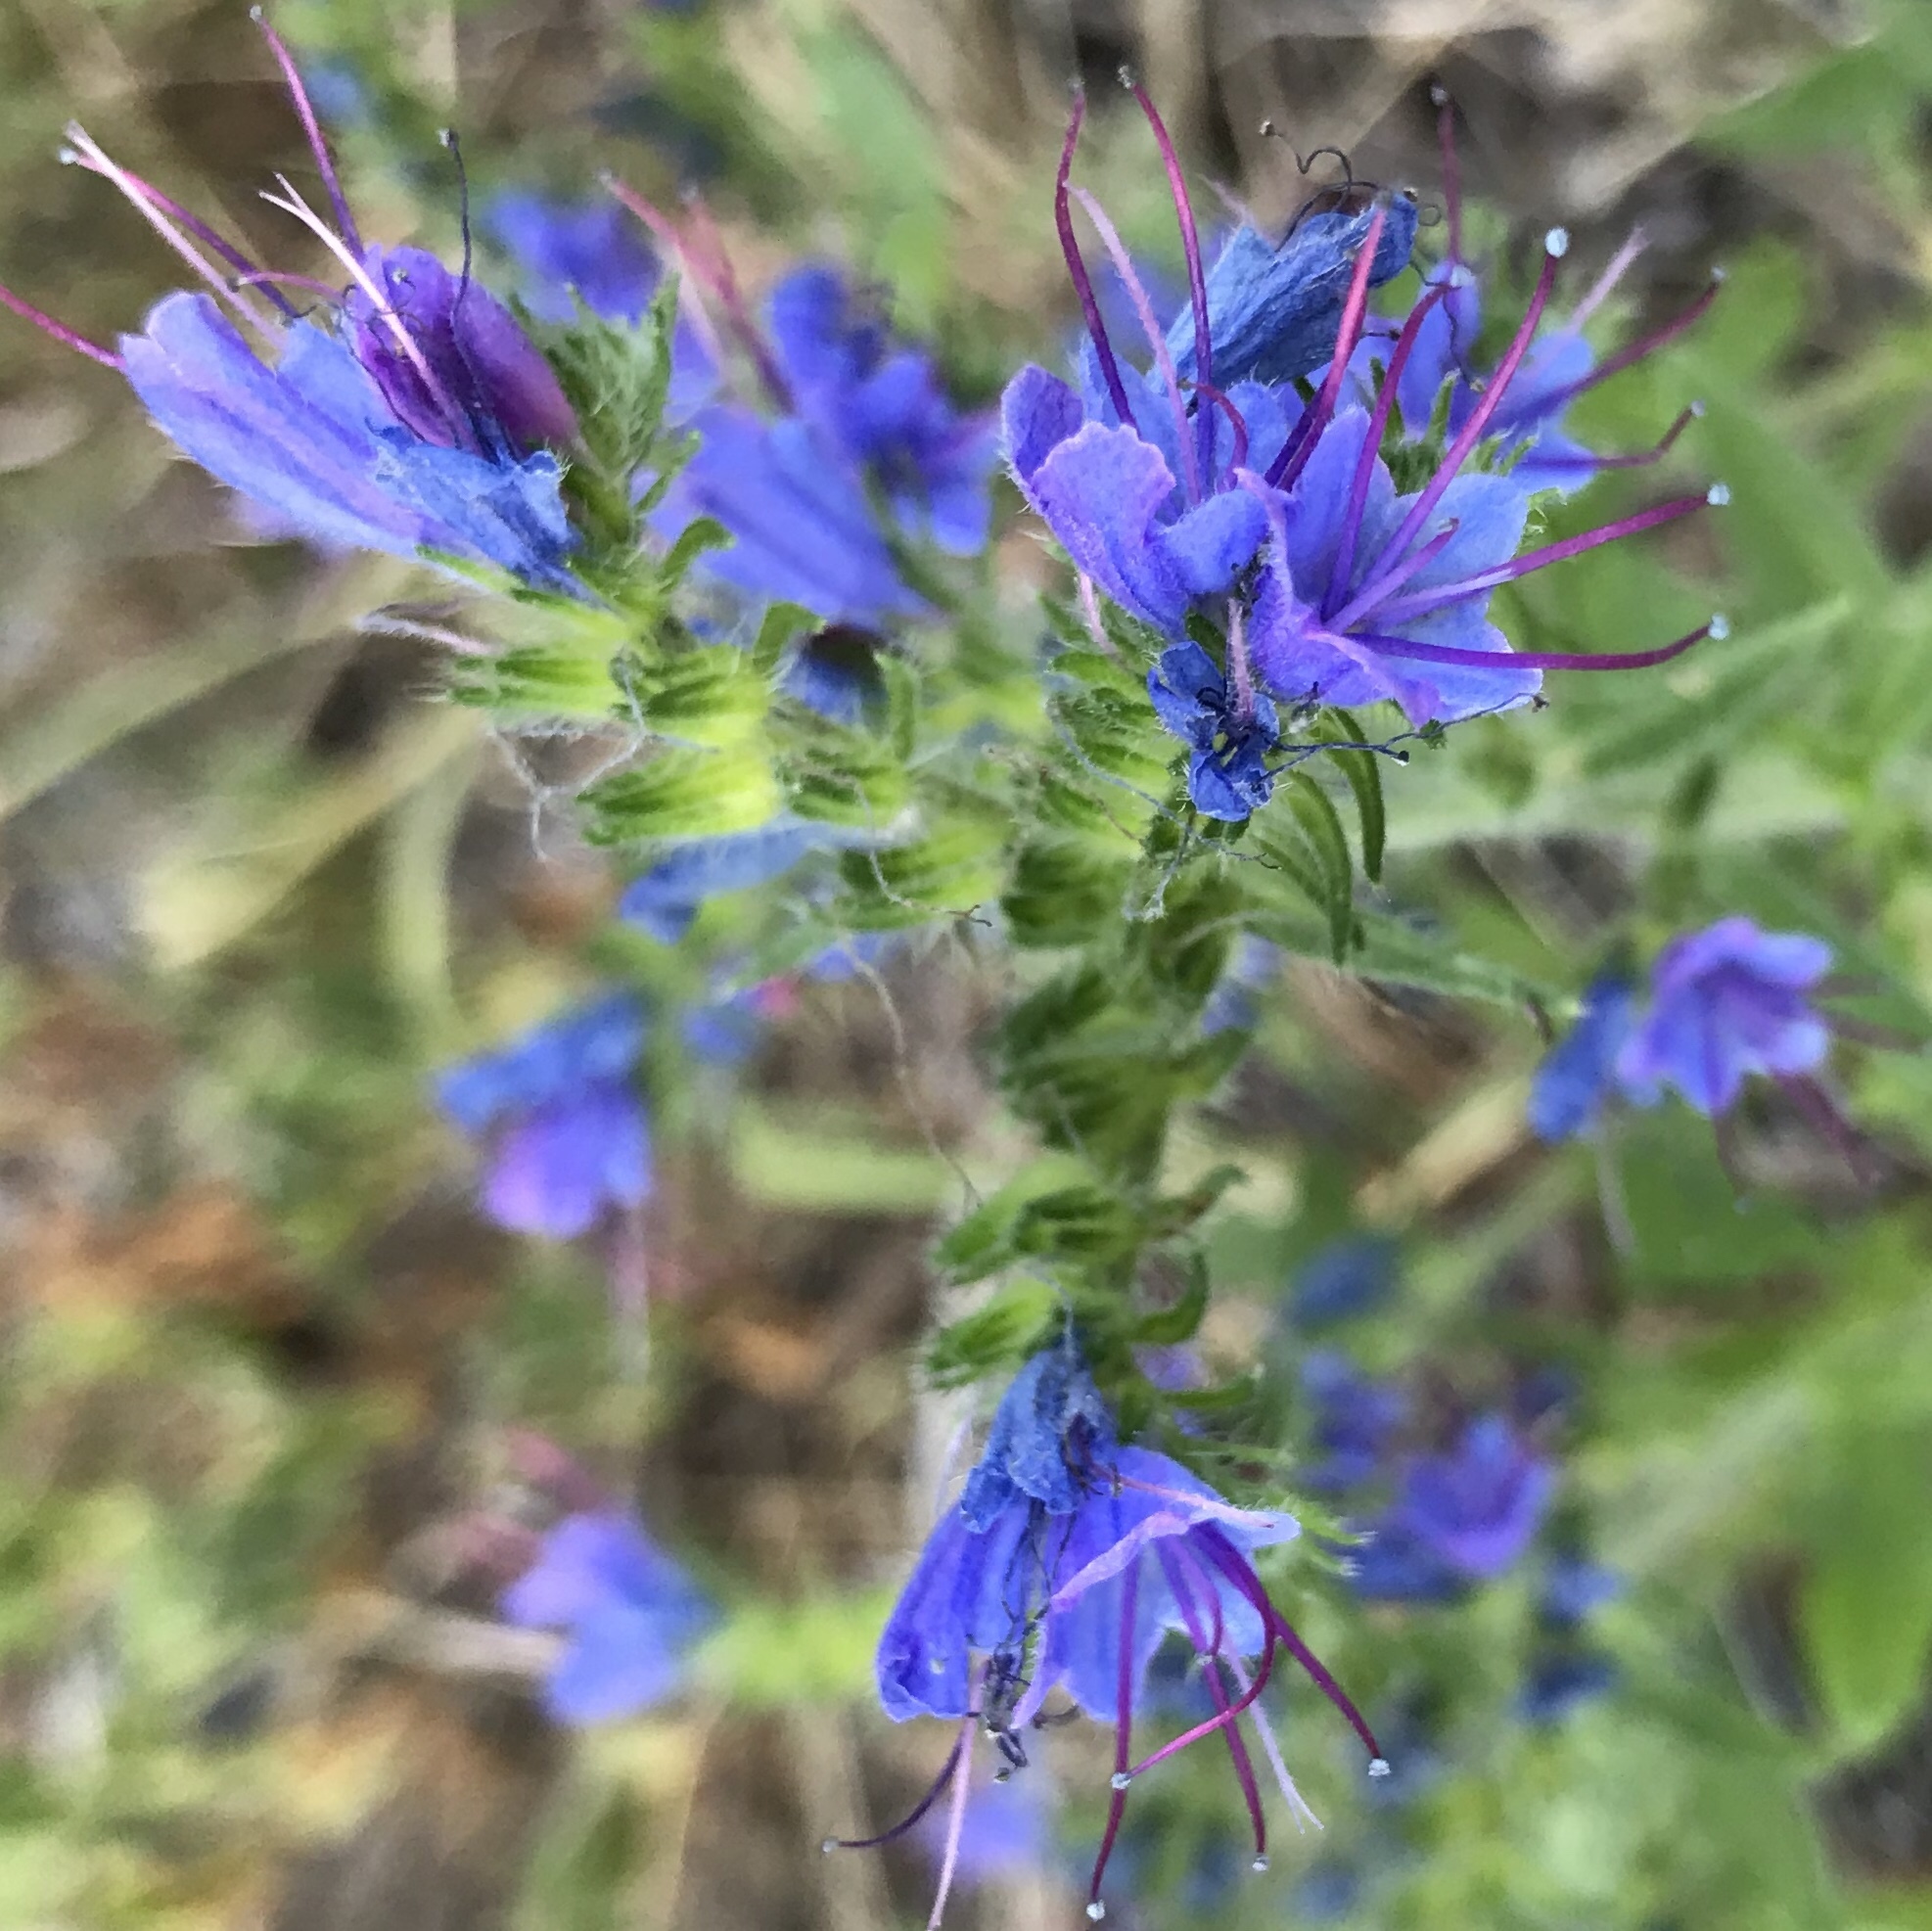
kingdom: Plantae
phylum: Tracheophyta
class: Magnoliopsida
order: Boraginales
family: Boraginaceae
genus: Echium
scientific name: Echium vulgare
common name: Common viper's bugloss
